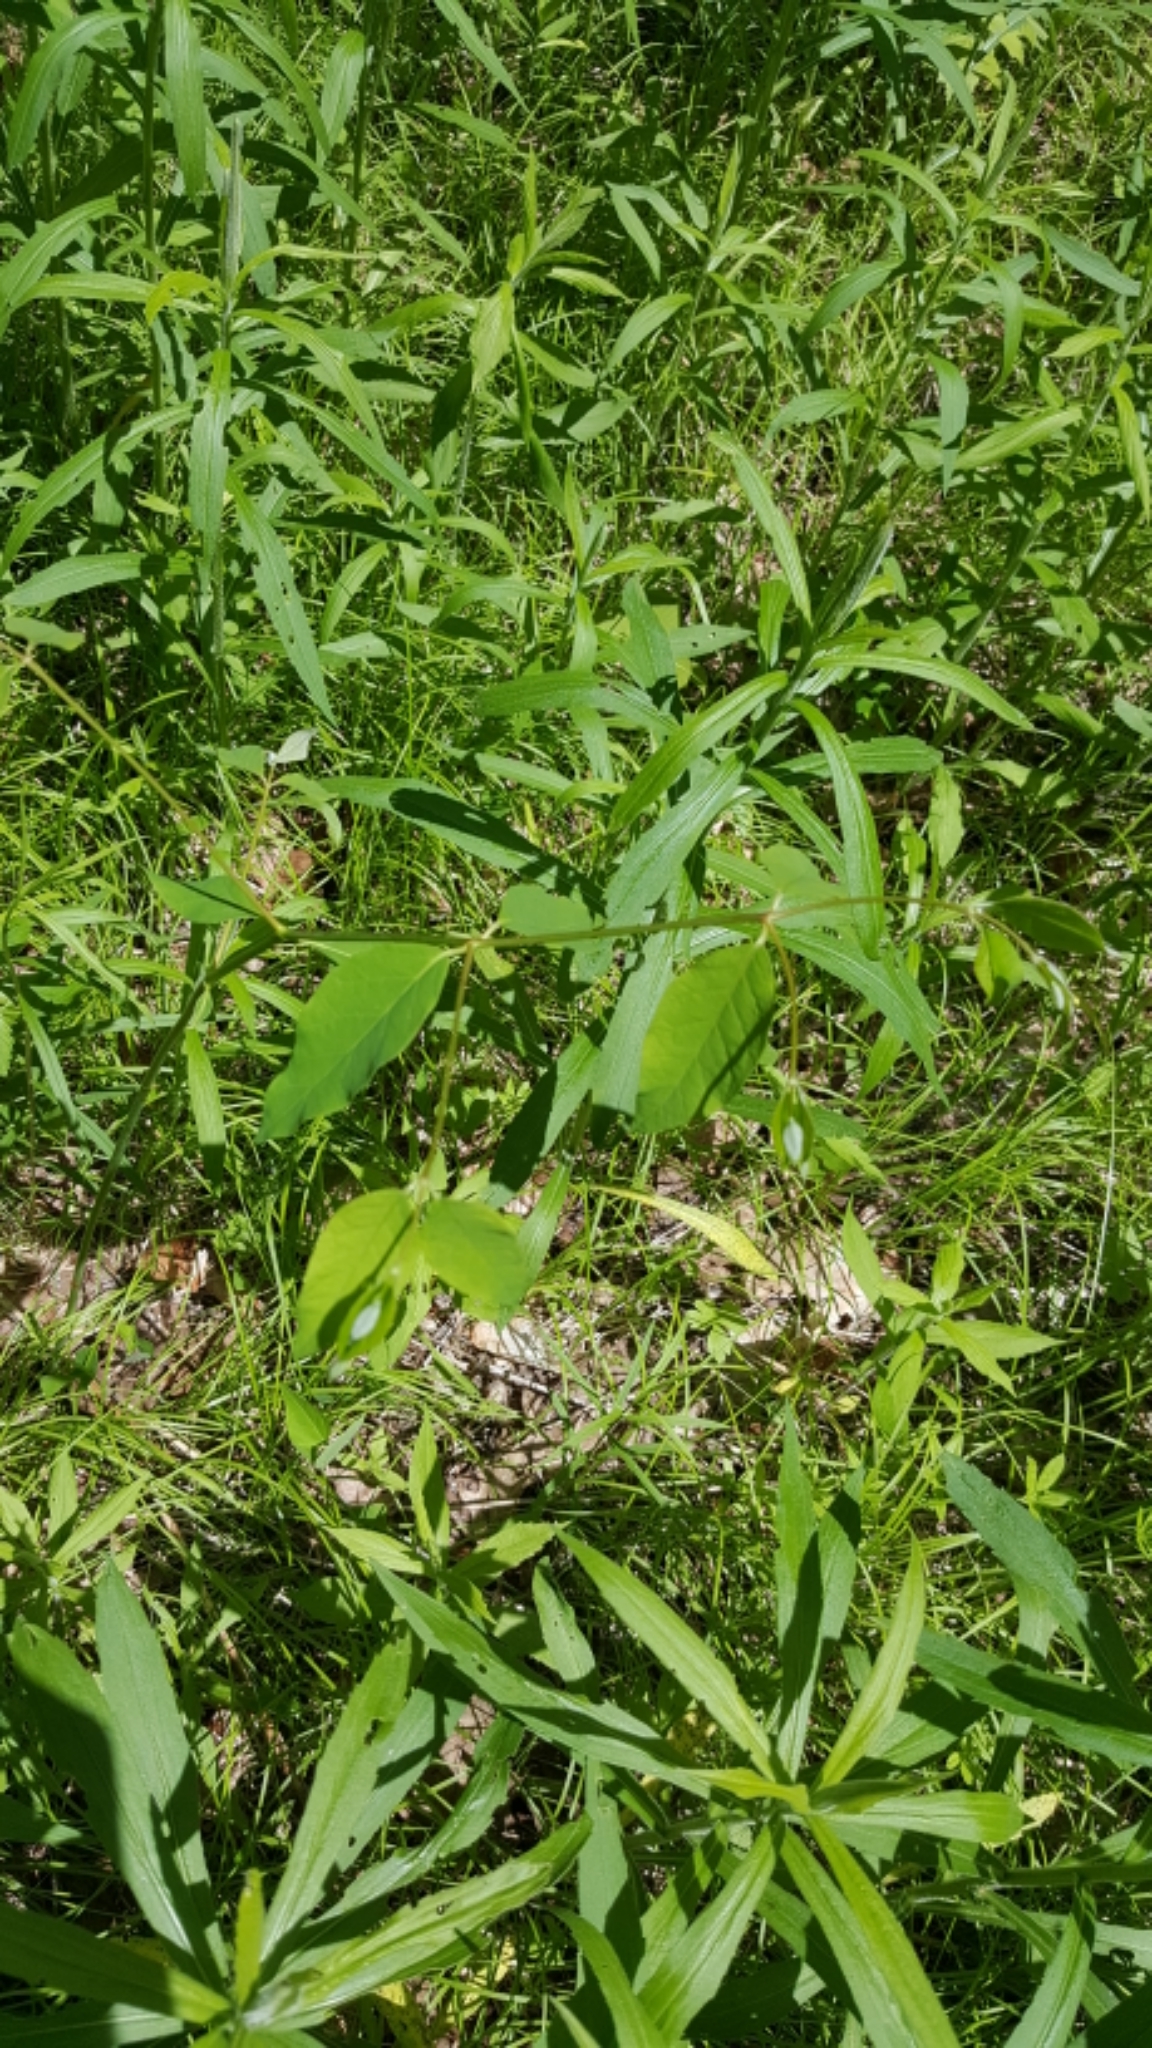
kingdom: Plantae
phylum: Tracheophyta
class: Magnoliopsida
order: Gentianales
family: Apocynaceae
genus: Apocynum
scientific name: Apocynum androsaemifolium
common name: Spreading dogbane
